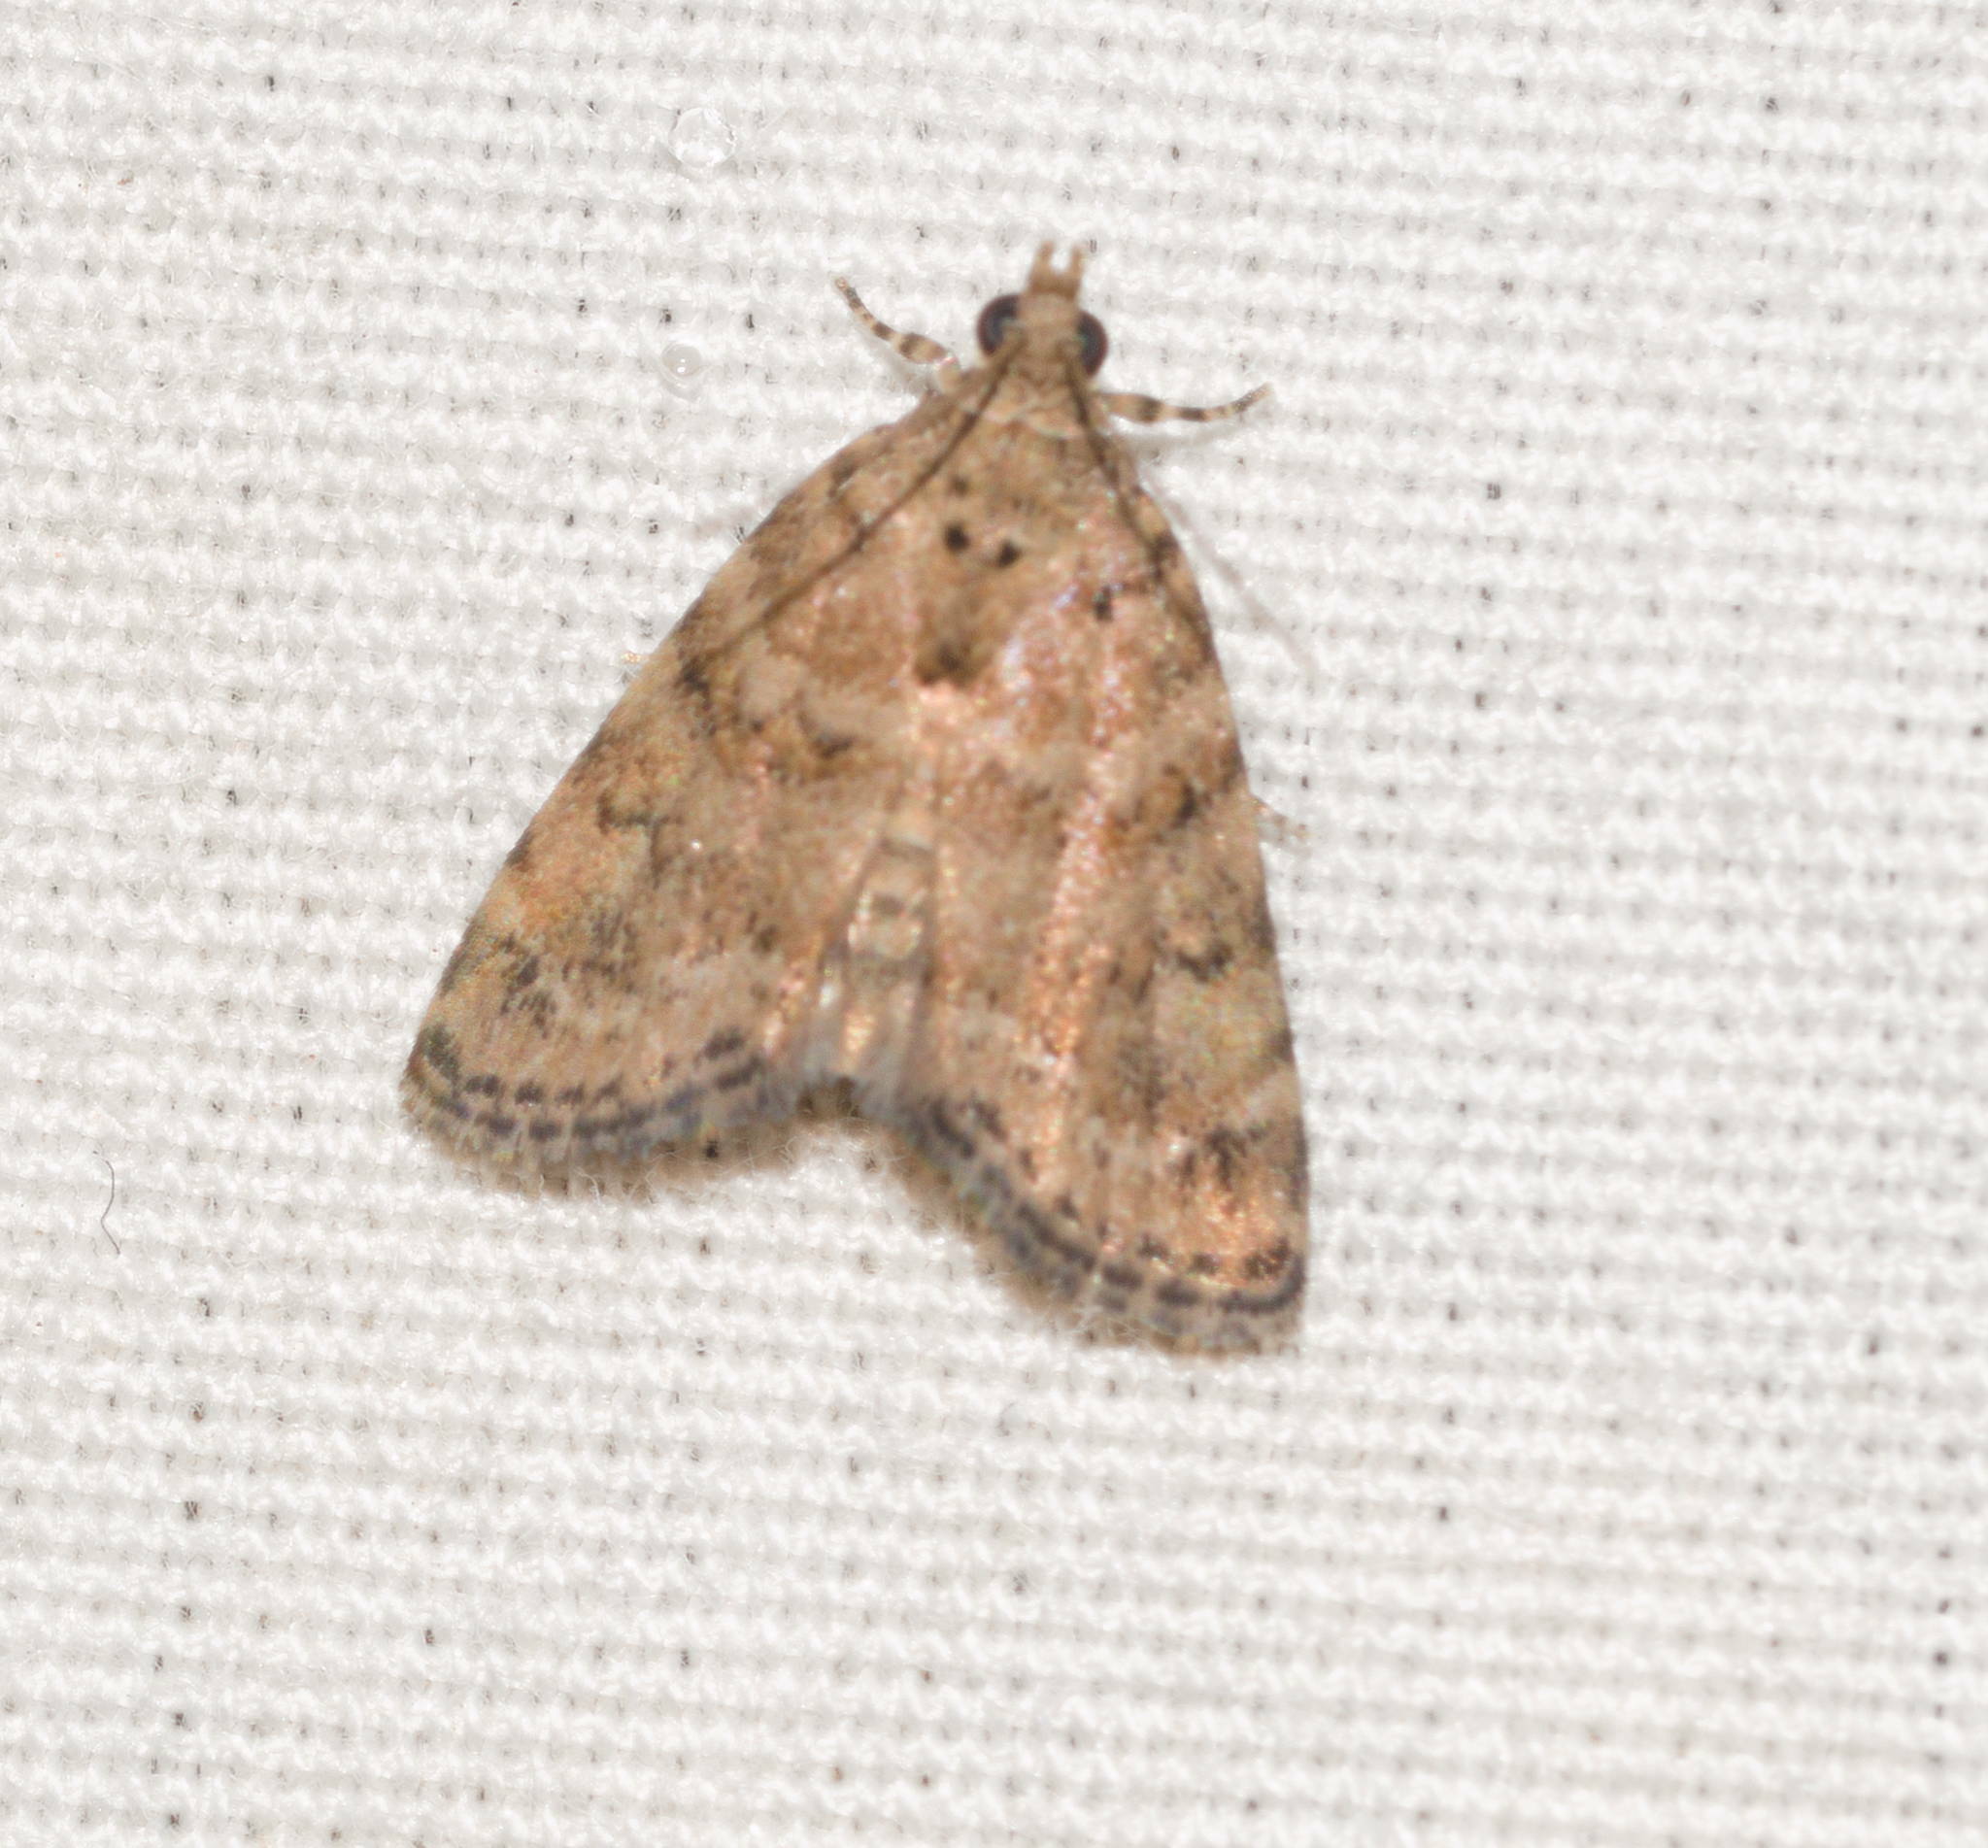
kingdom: Animalia
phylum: Arthropoda
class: Insecta
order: Lepidoptera
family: Crambidae
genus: Mestolobes
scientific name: Mestolobes abnormis
